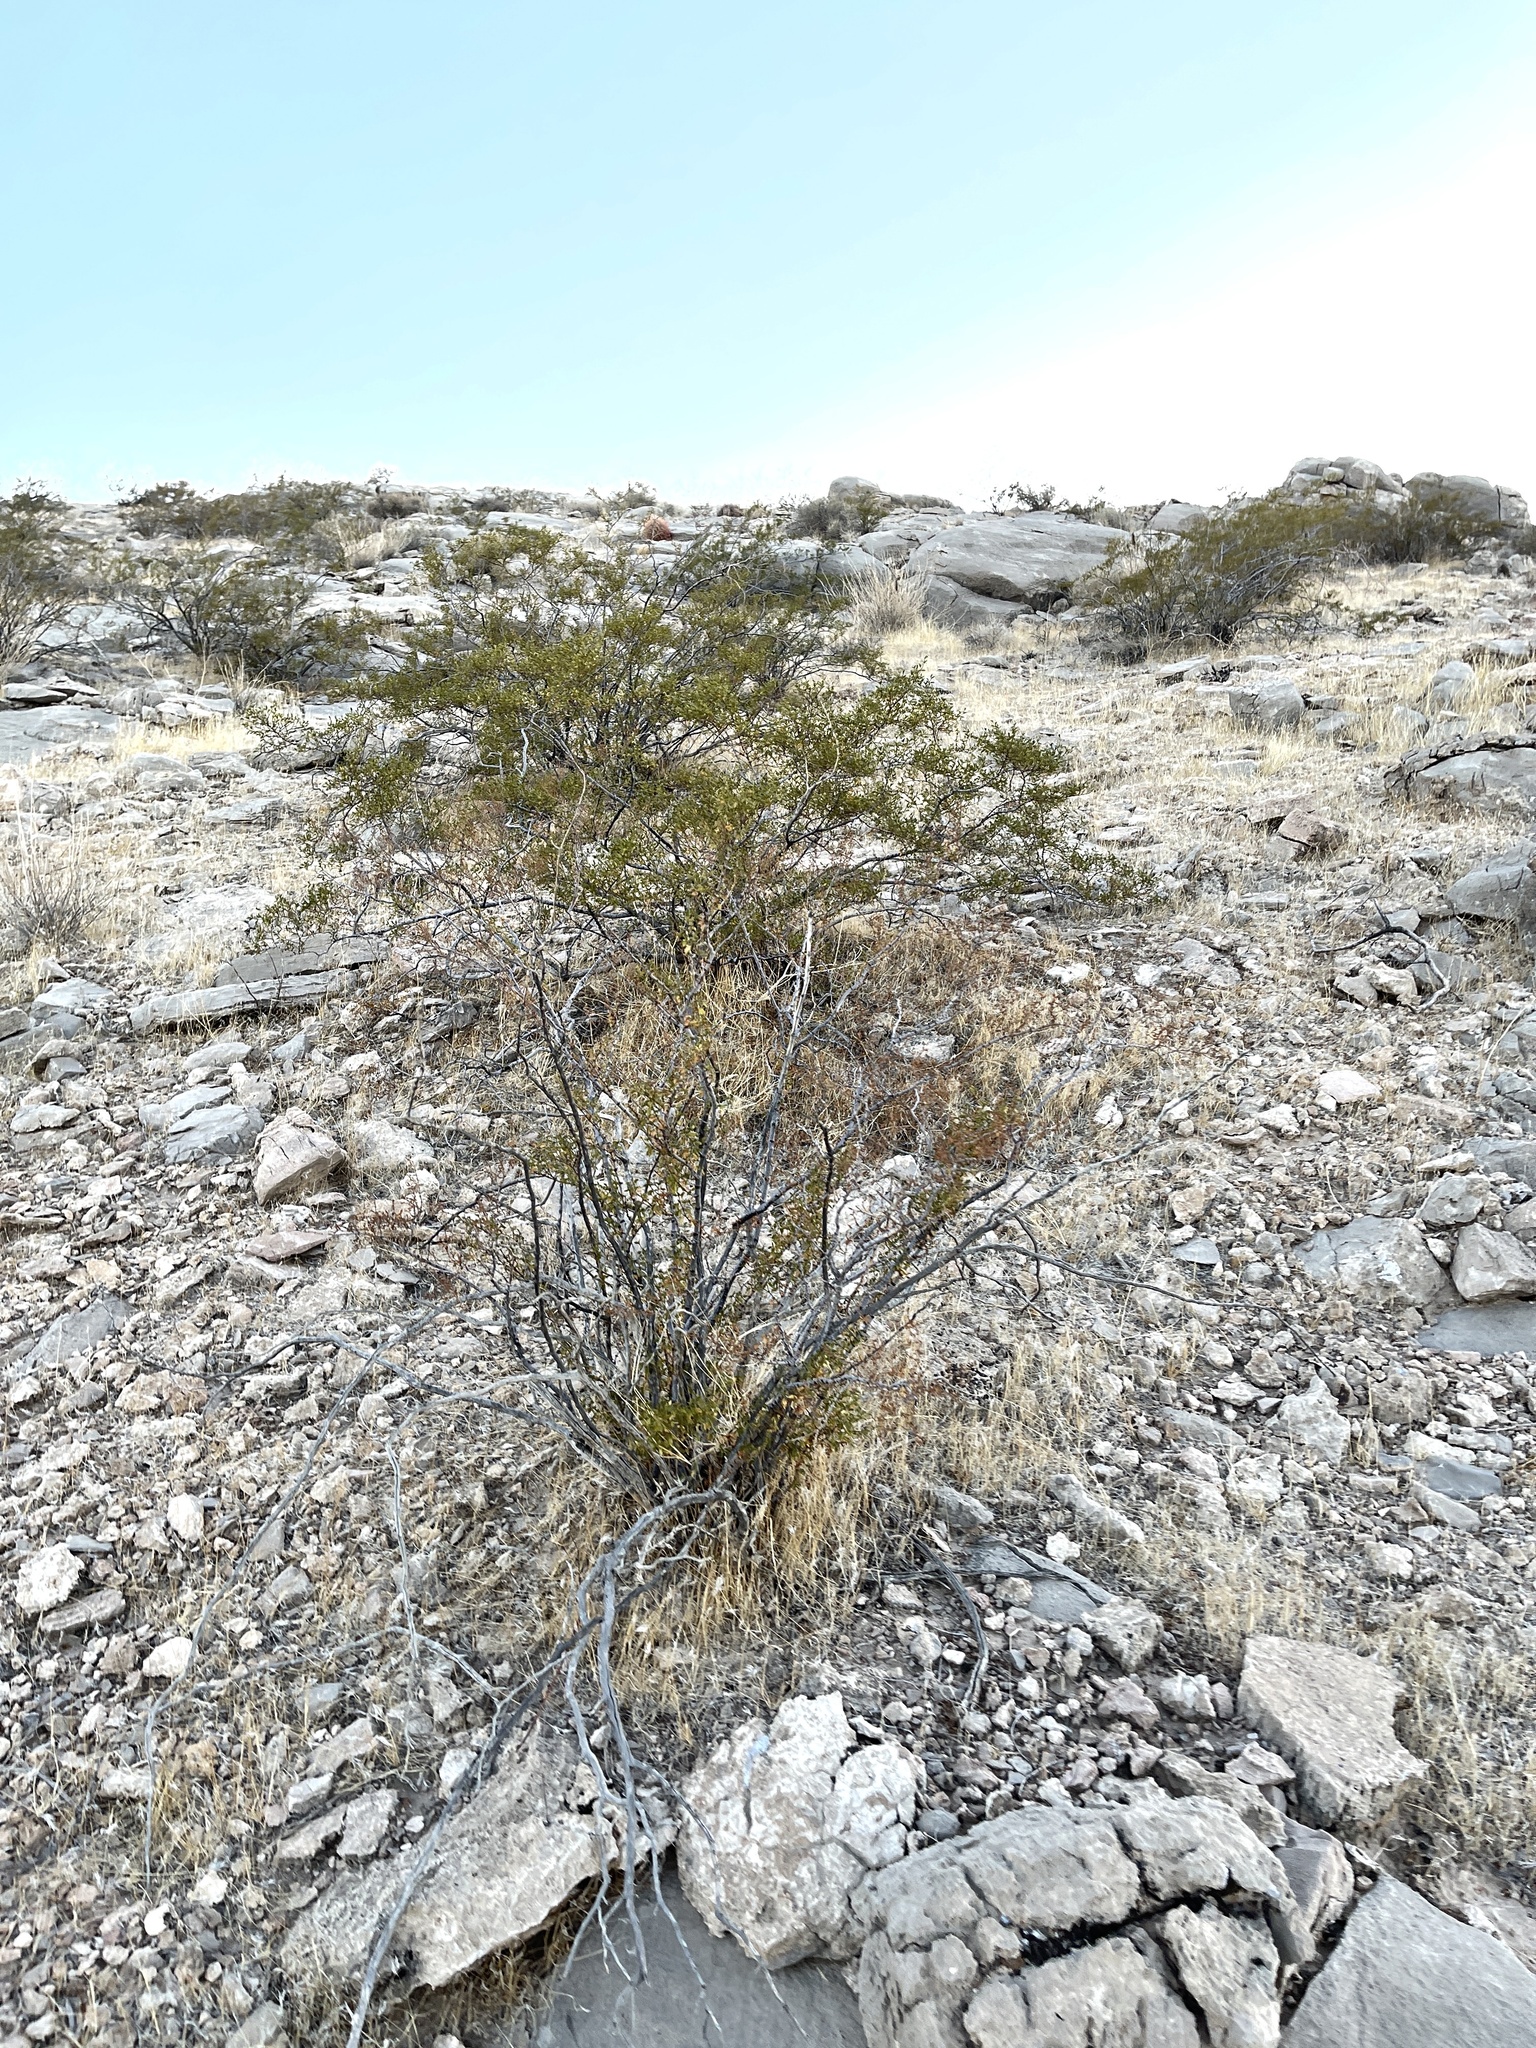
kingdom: Plantae
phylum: Tracheophyta
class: Magnoliopsida
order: Zygophyllales
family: Zygophyllaceae
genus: Larrea
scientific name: Larrea tridentata
